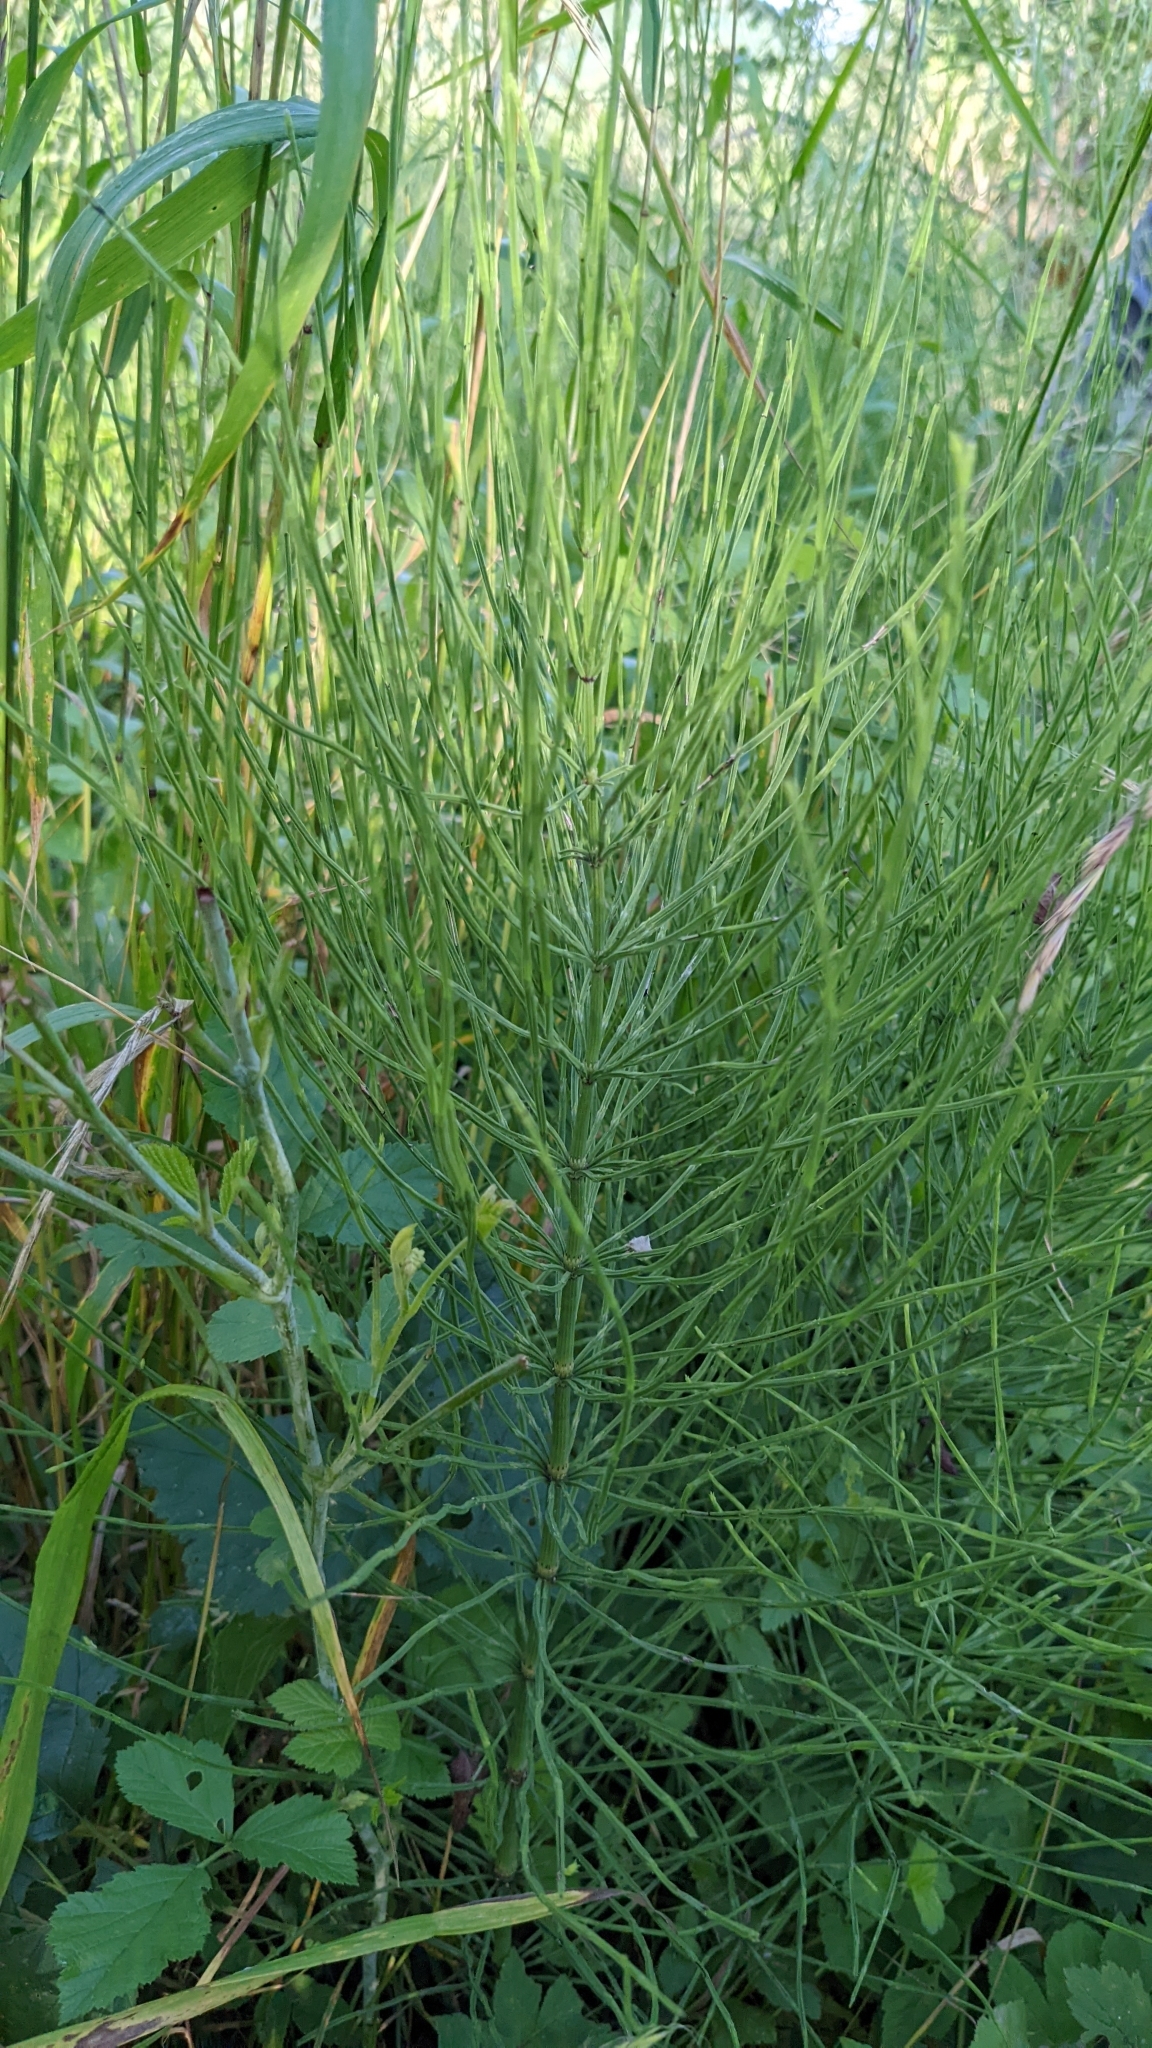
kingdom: Plantae
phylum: Tracheophyta
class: Polypodiopsida
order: Equisetales
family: Equisetaceae
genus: Equisetum
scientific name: Equisetum arvense
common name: Field horsetail
